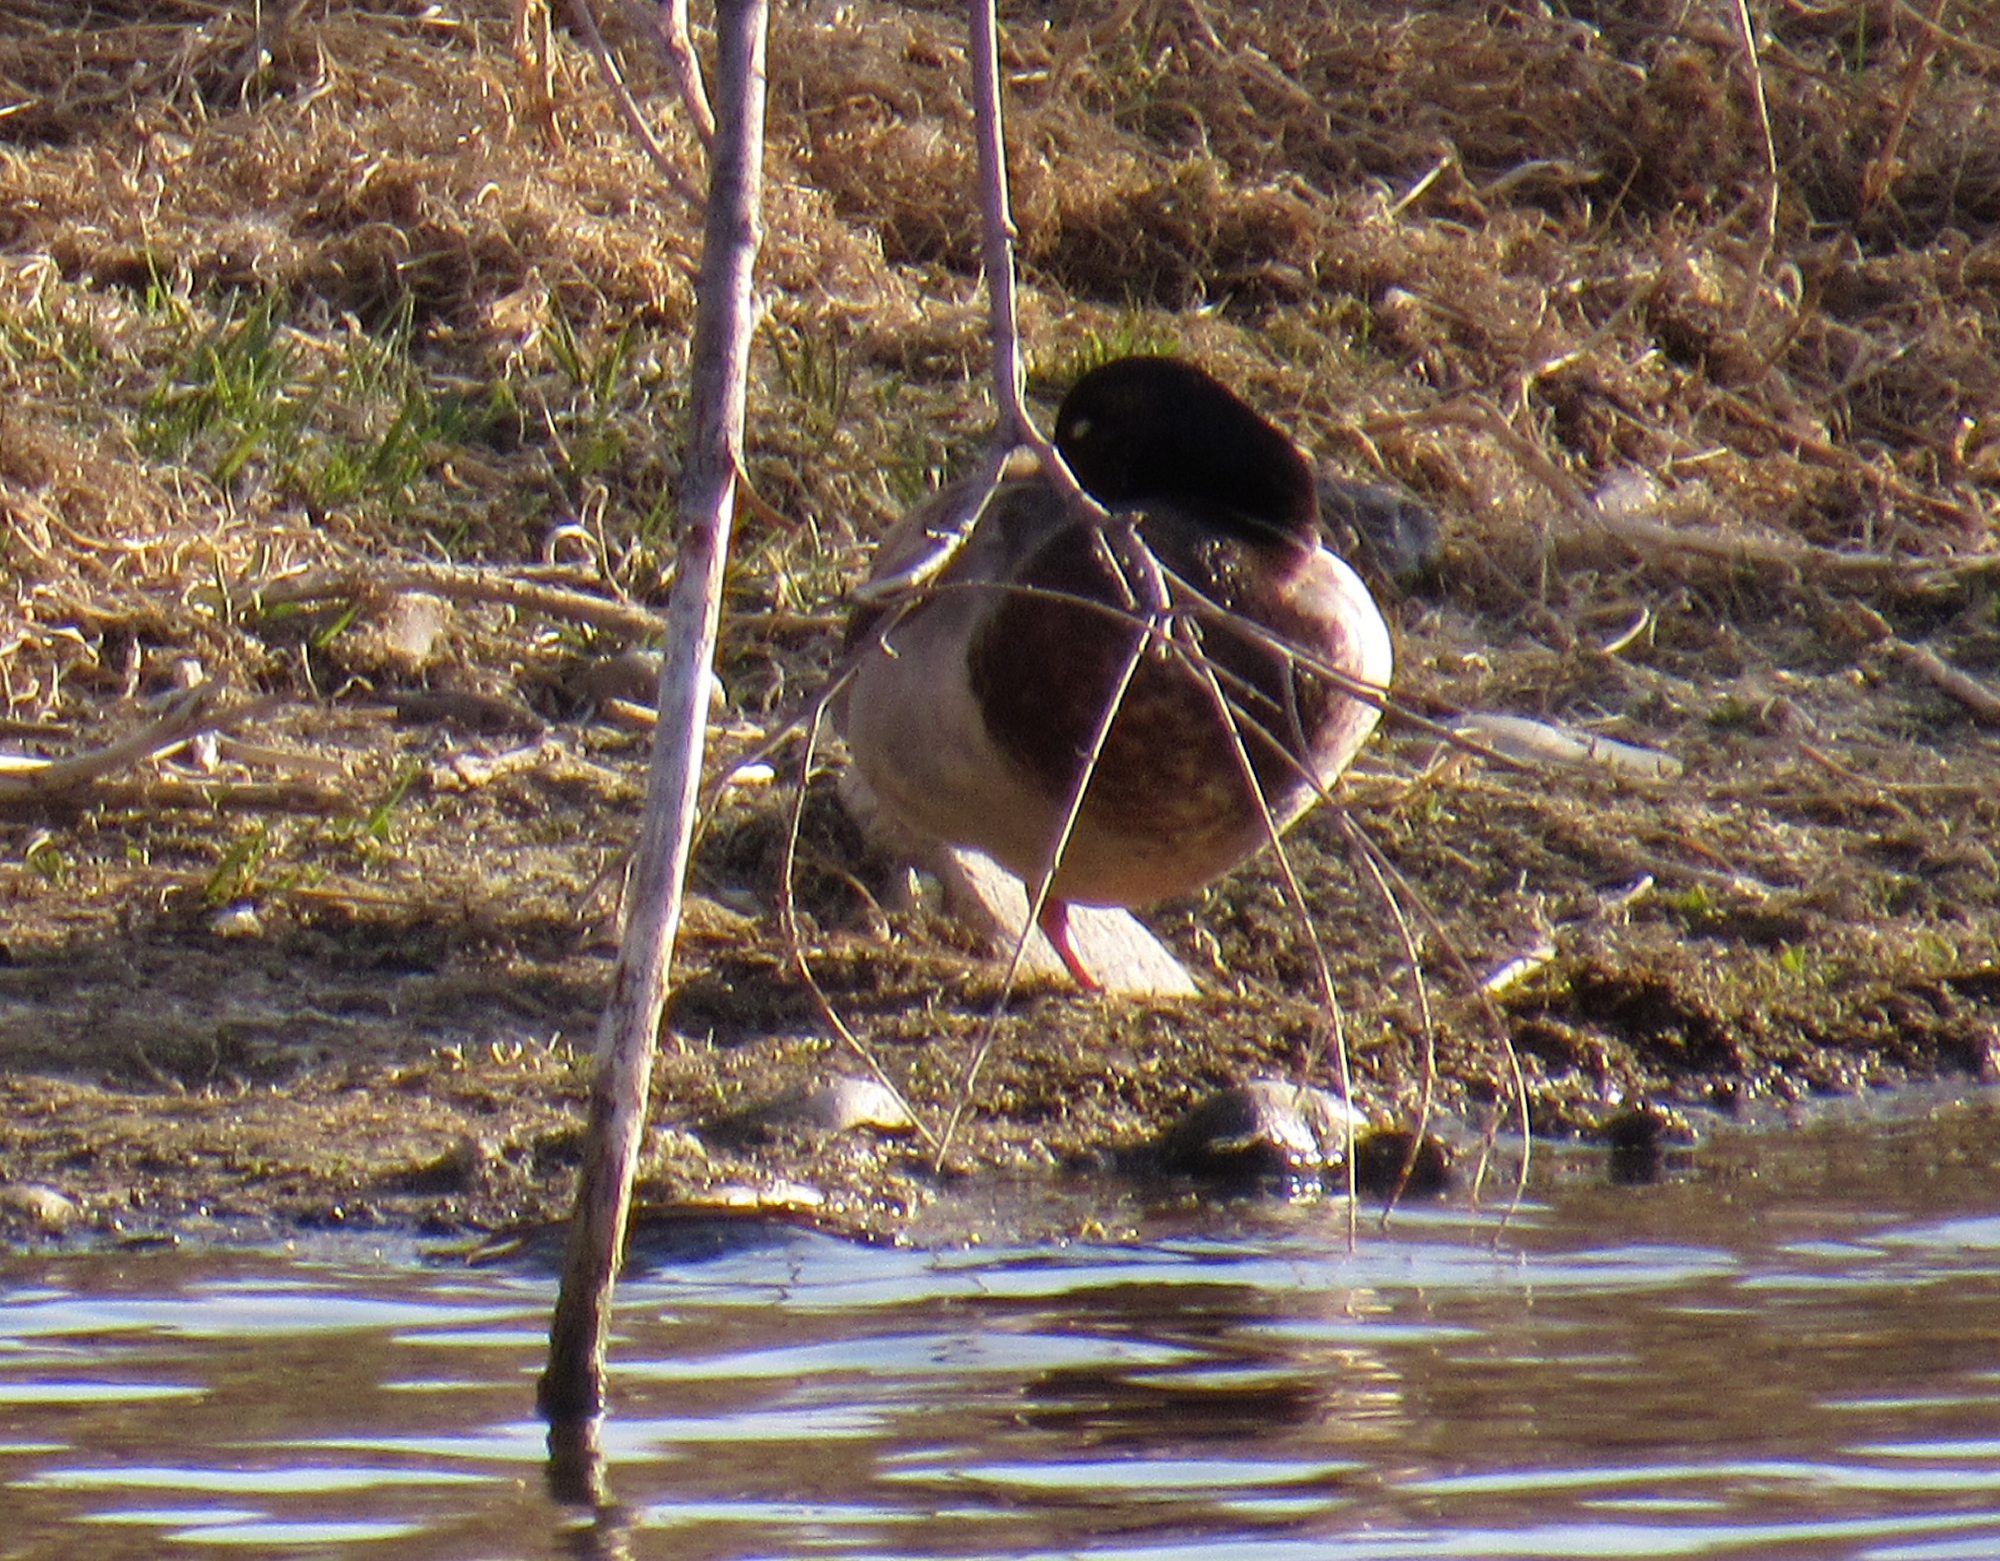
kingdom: Animalia
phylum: Chordata
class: Aves
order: Anseriformes
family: Anatidae
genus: Anas
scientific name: Anas platyrhynchos
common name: Mallard
